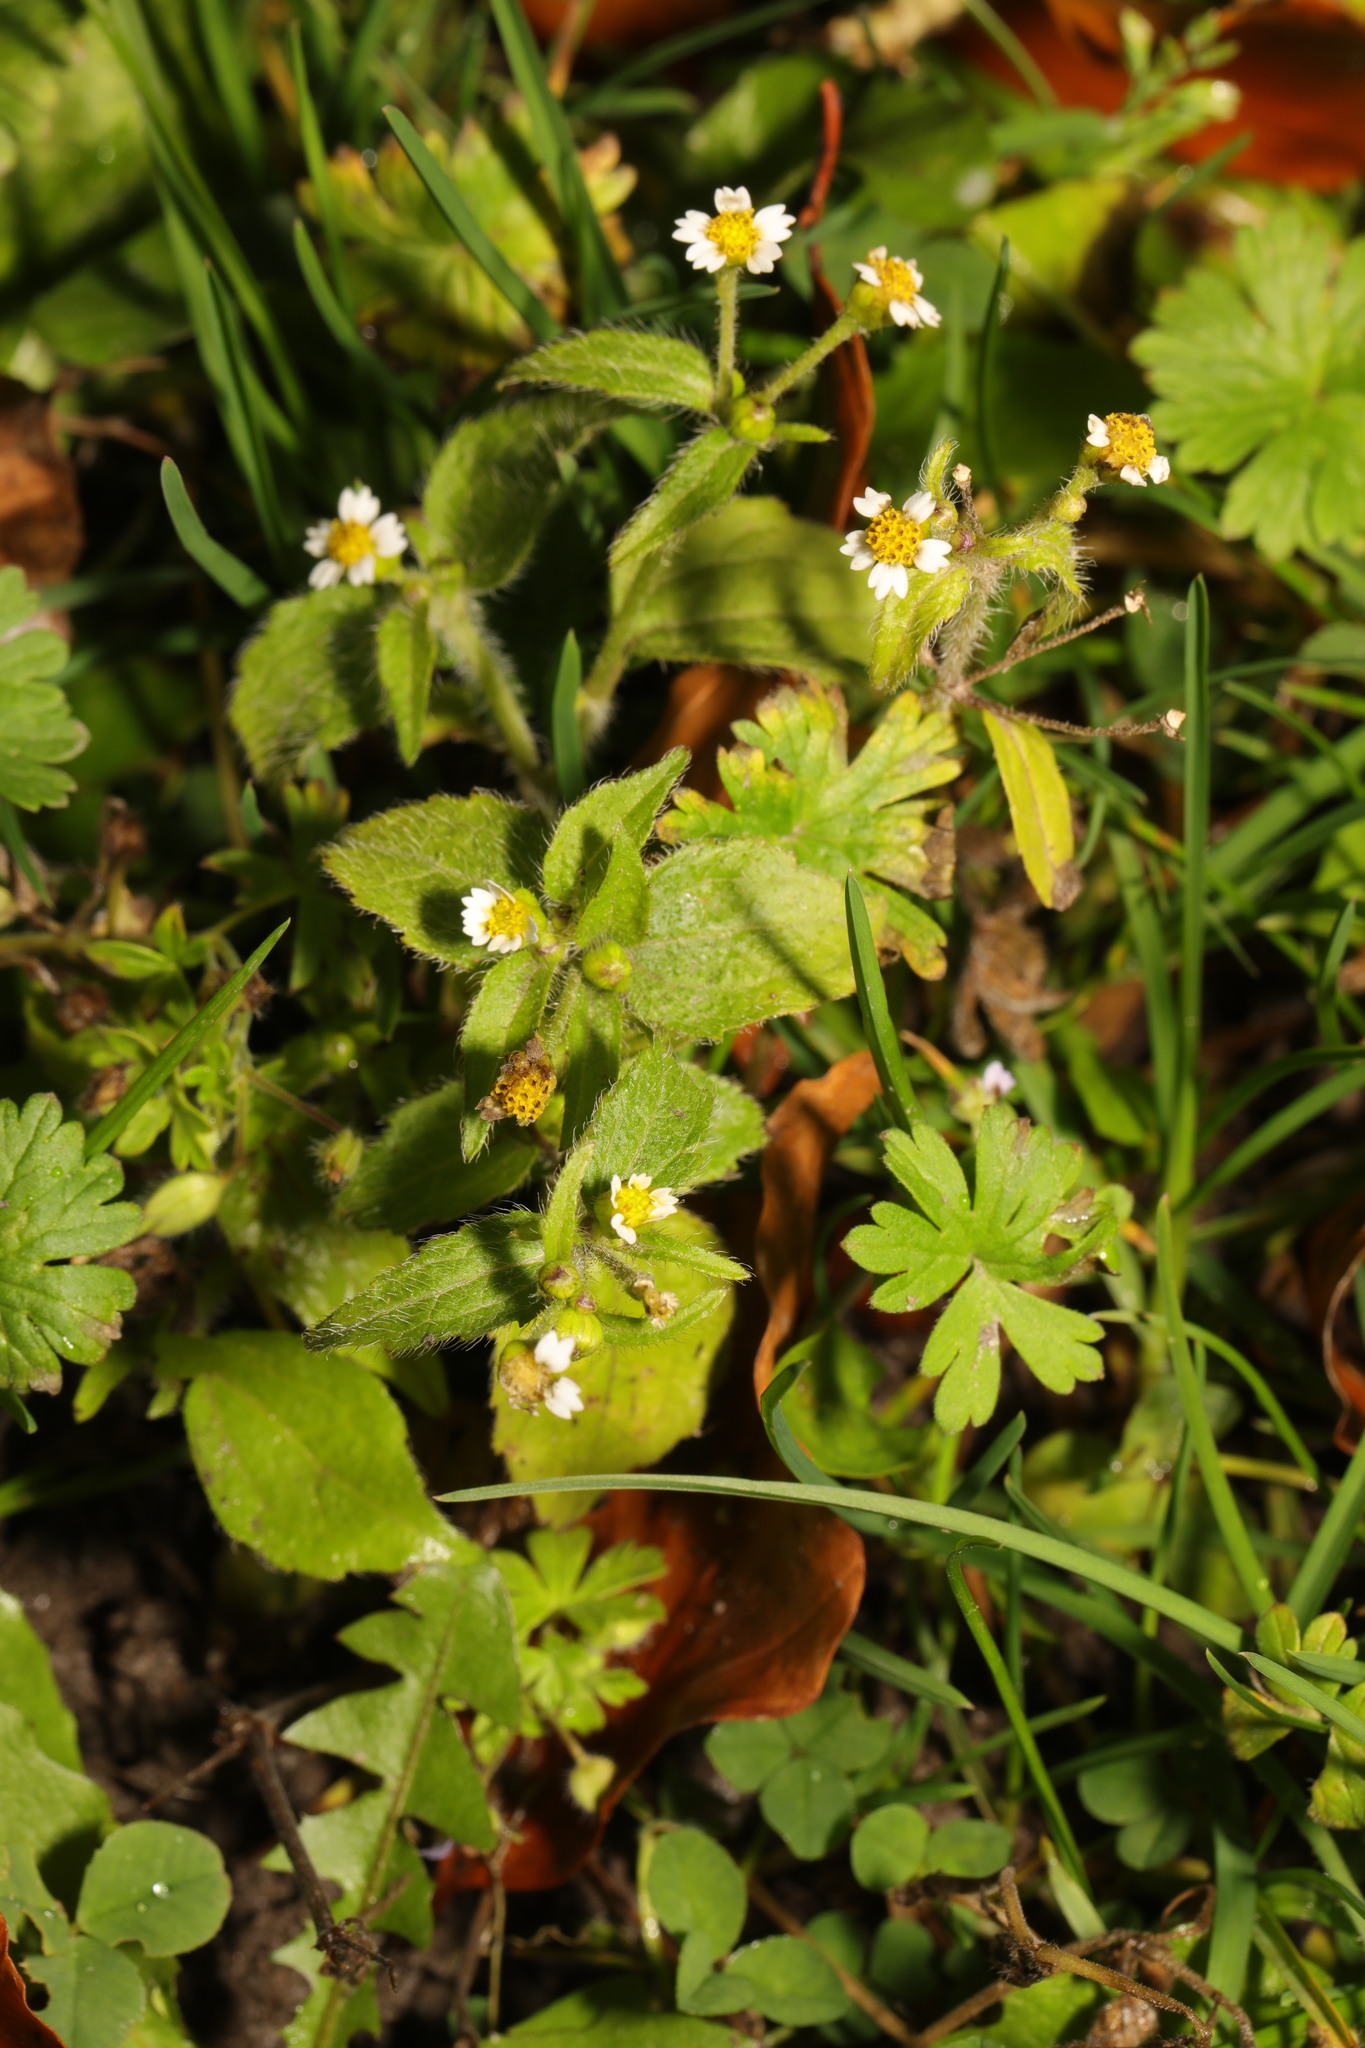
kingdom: Plantae
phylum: Tracheophyta
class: Magnoliopsida
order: Asterales
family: Asteraceae
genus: Galinsoga
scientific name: Galinsoga quadriradiata
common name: Shaggy soldier
